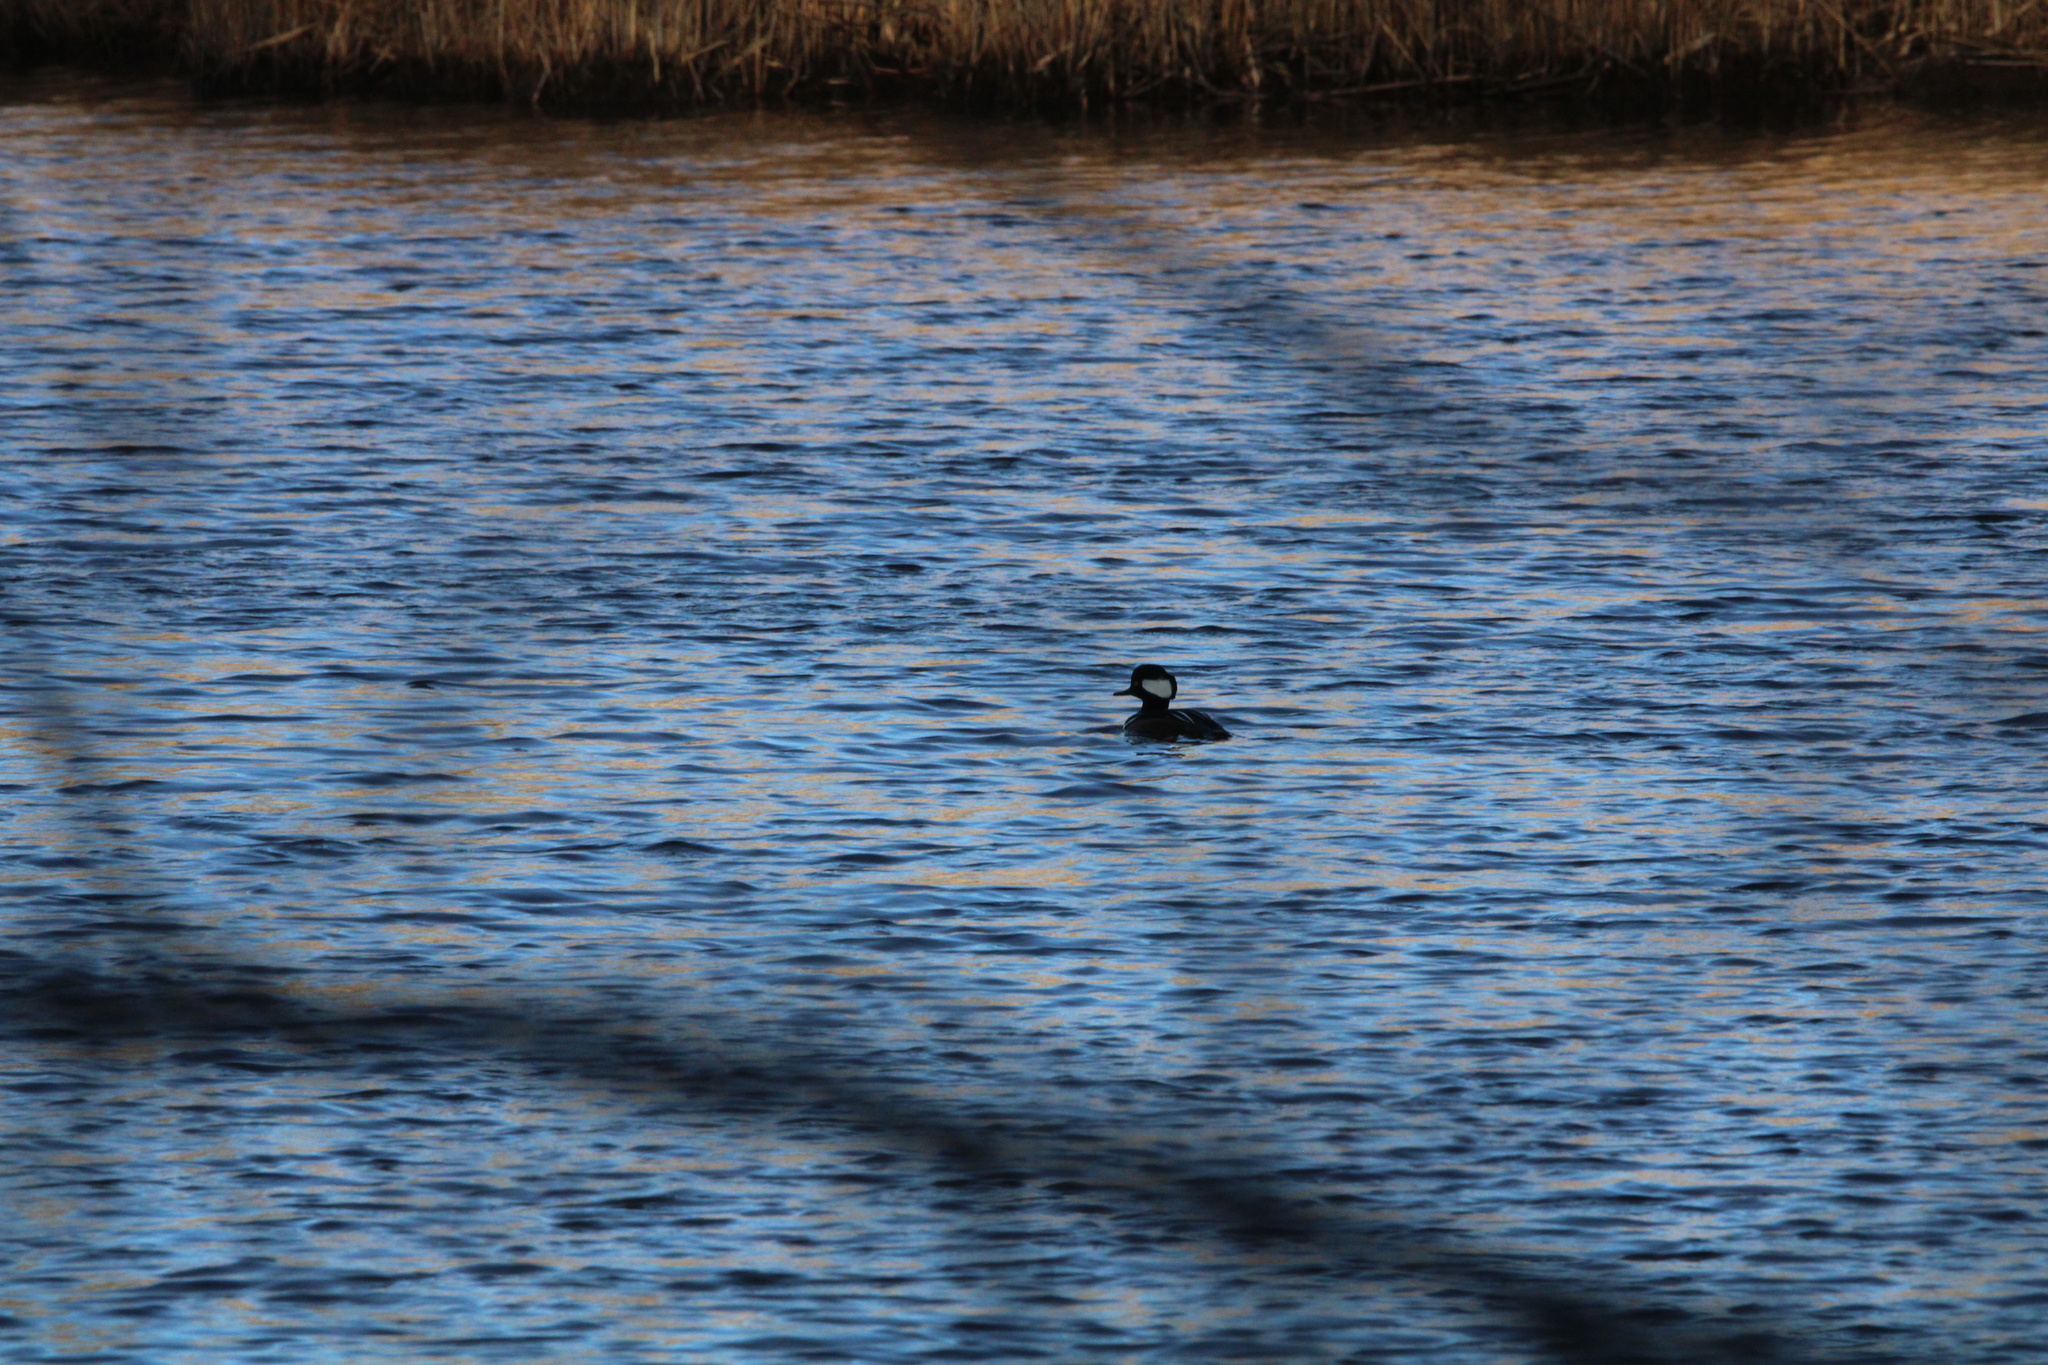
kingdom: Animalia
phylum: Chordata
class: Aves
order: Anseriformes
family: Anatidae
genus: Lophodytes
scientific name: Lophodytes cucullatus
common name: Hooded merganser
